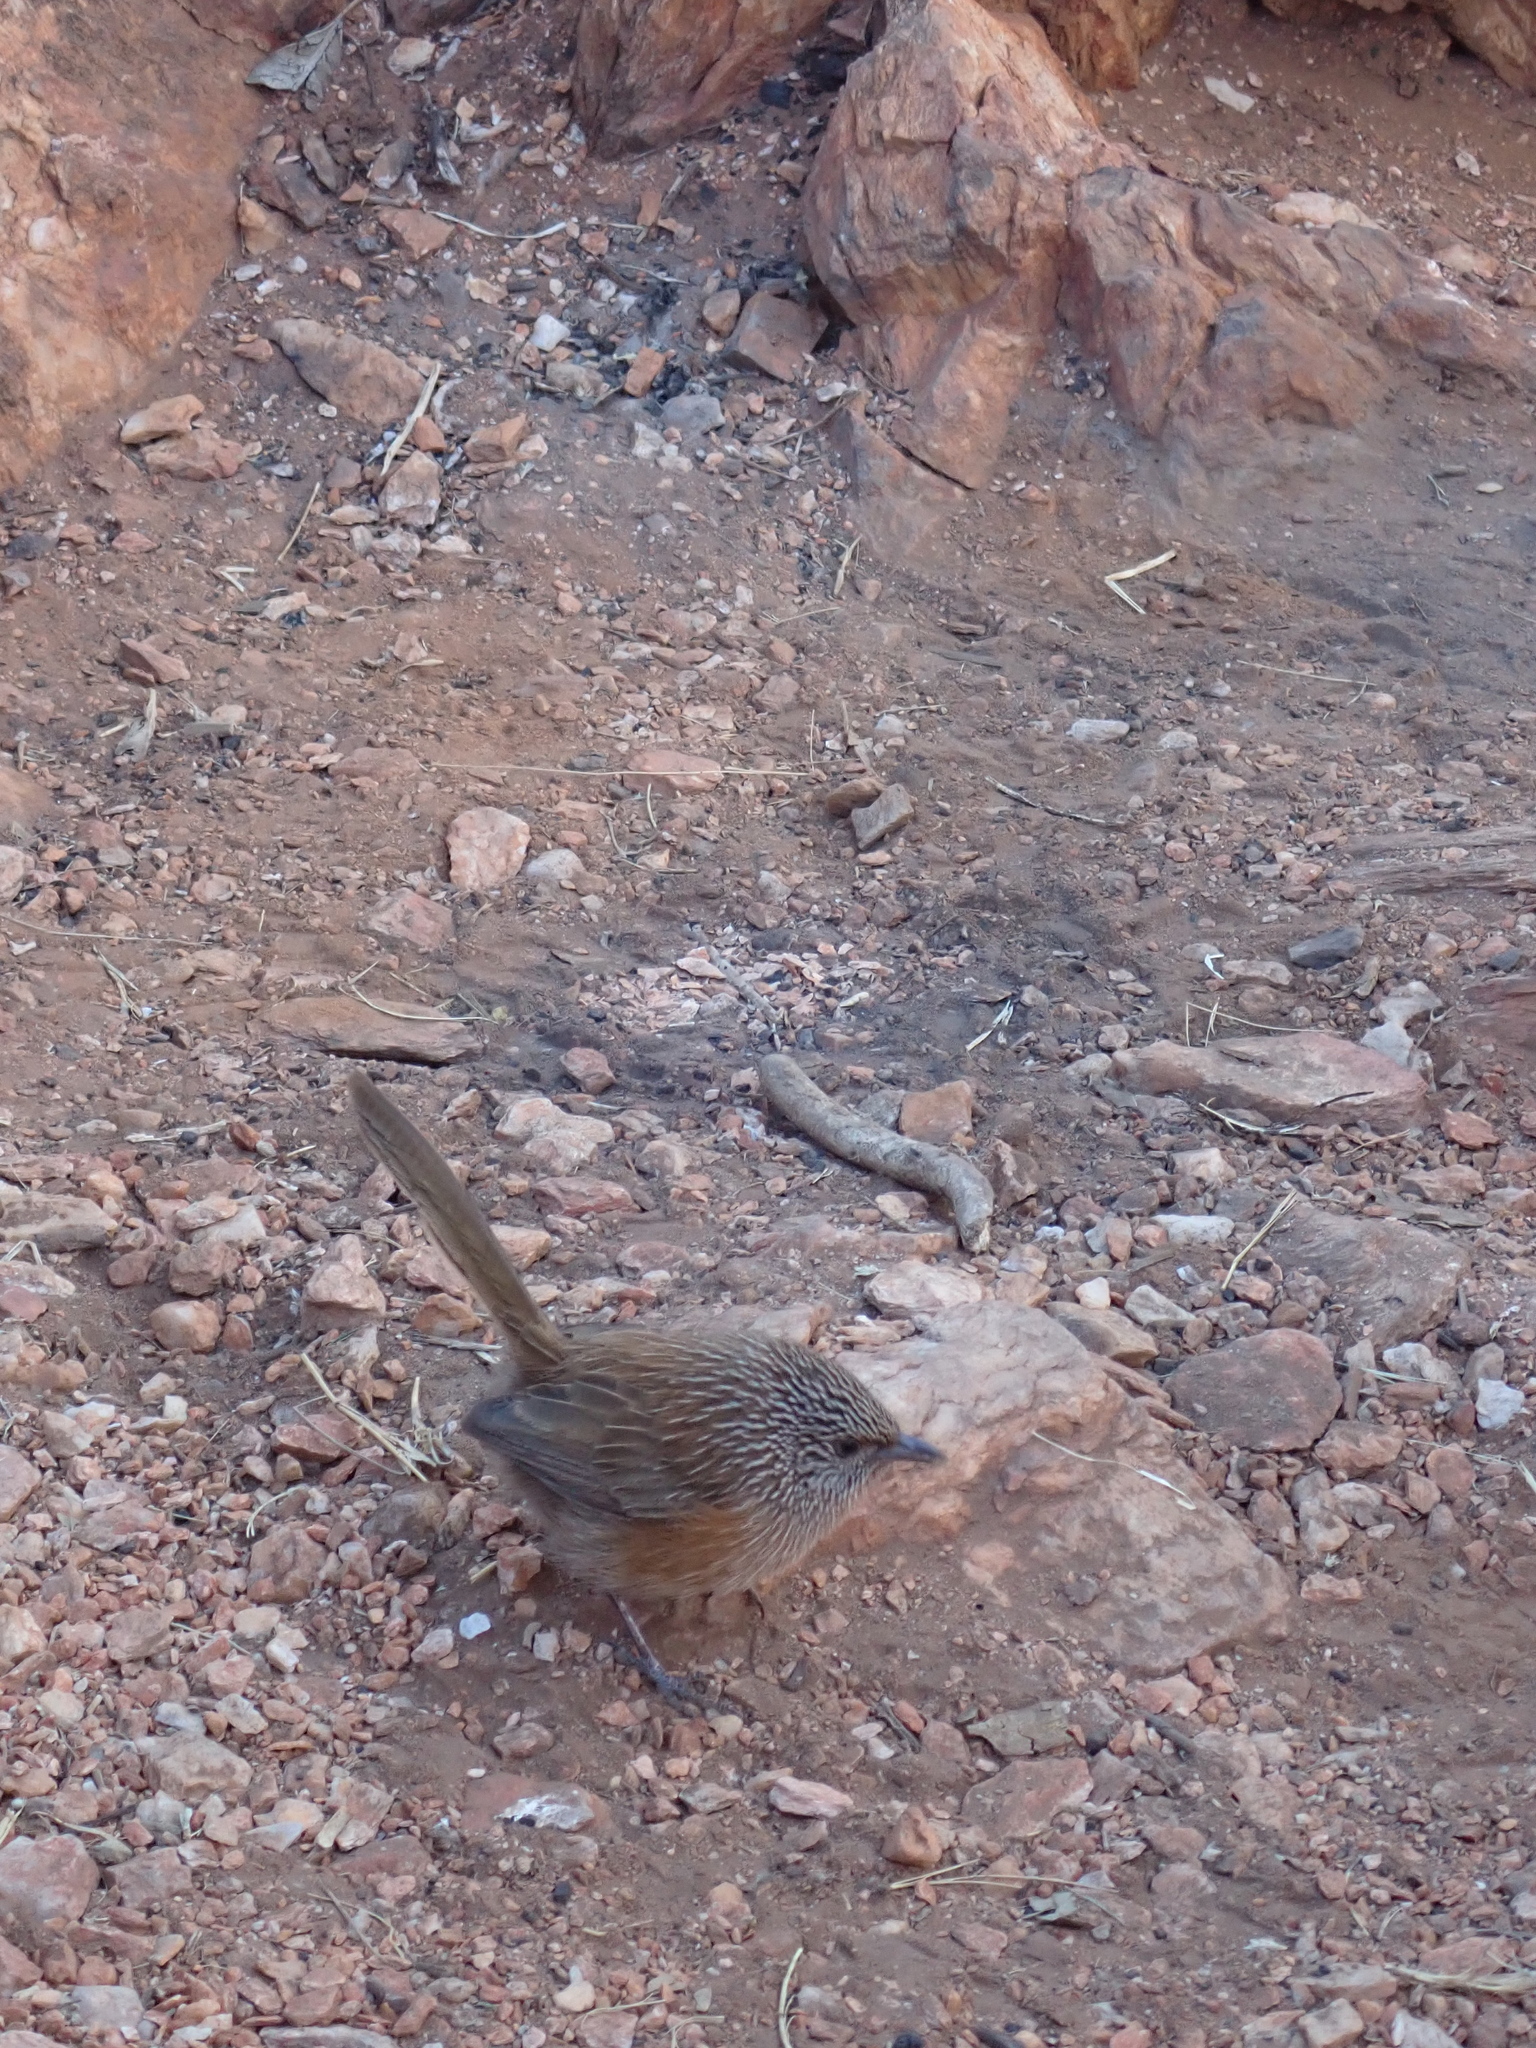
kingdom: Animalia
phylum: Chordata
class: Aves
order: Passeriformes
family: Maluridae
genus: Amytornis
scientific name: Amytornis purnelli
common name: Dusky grasswren
